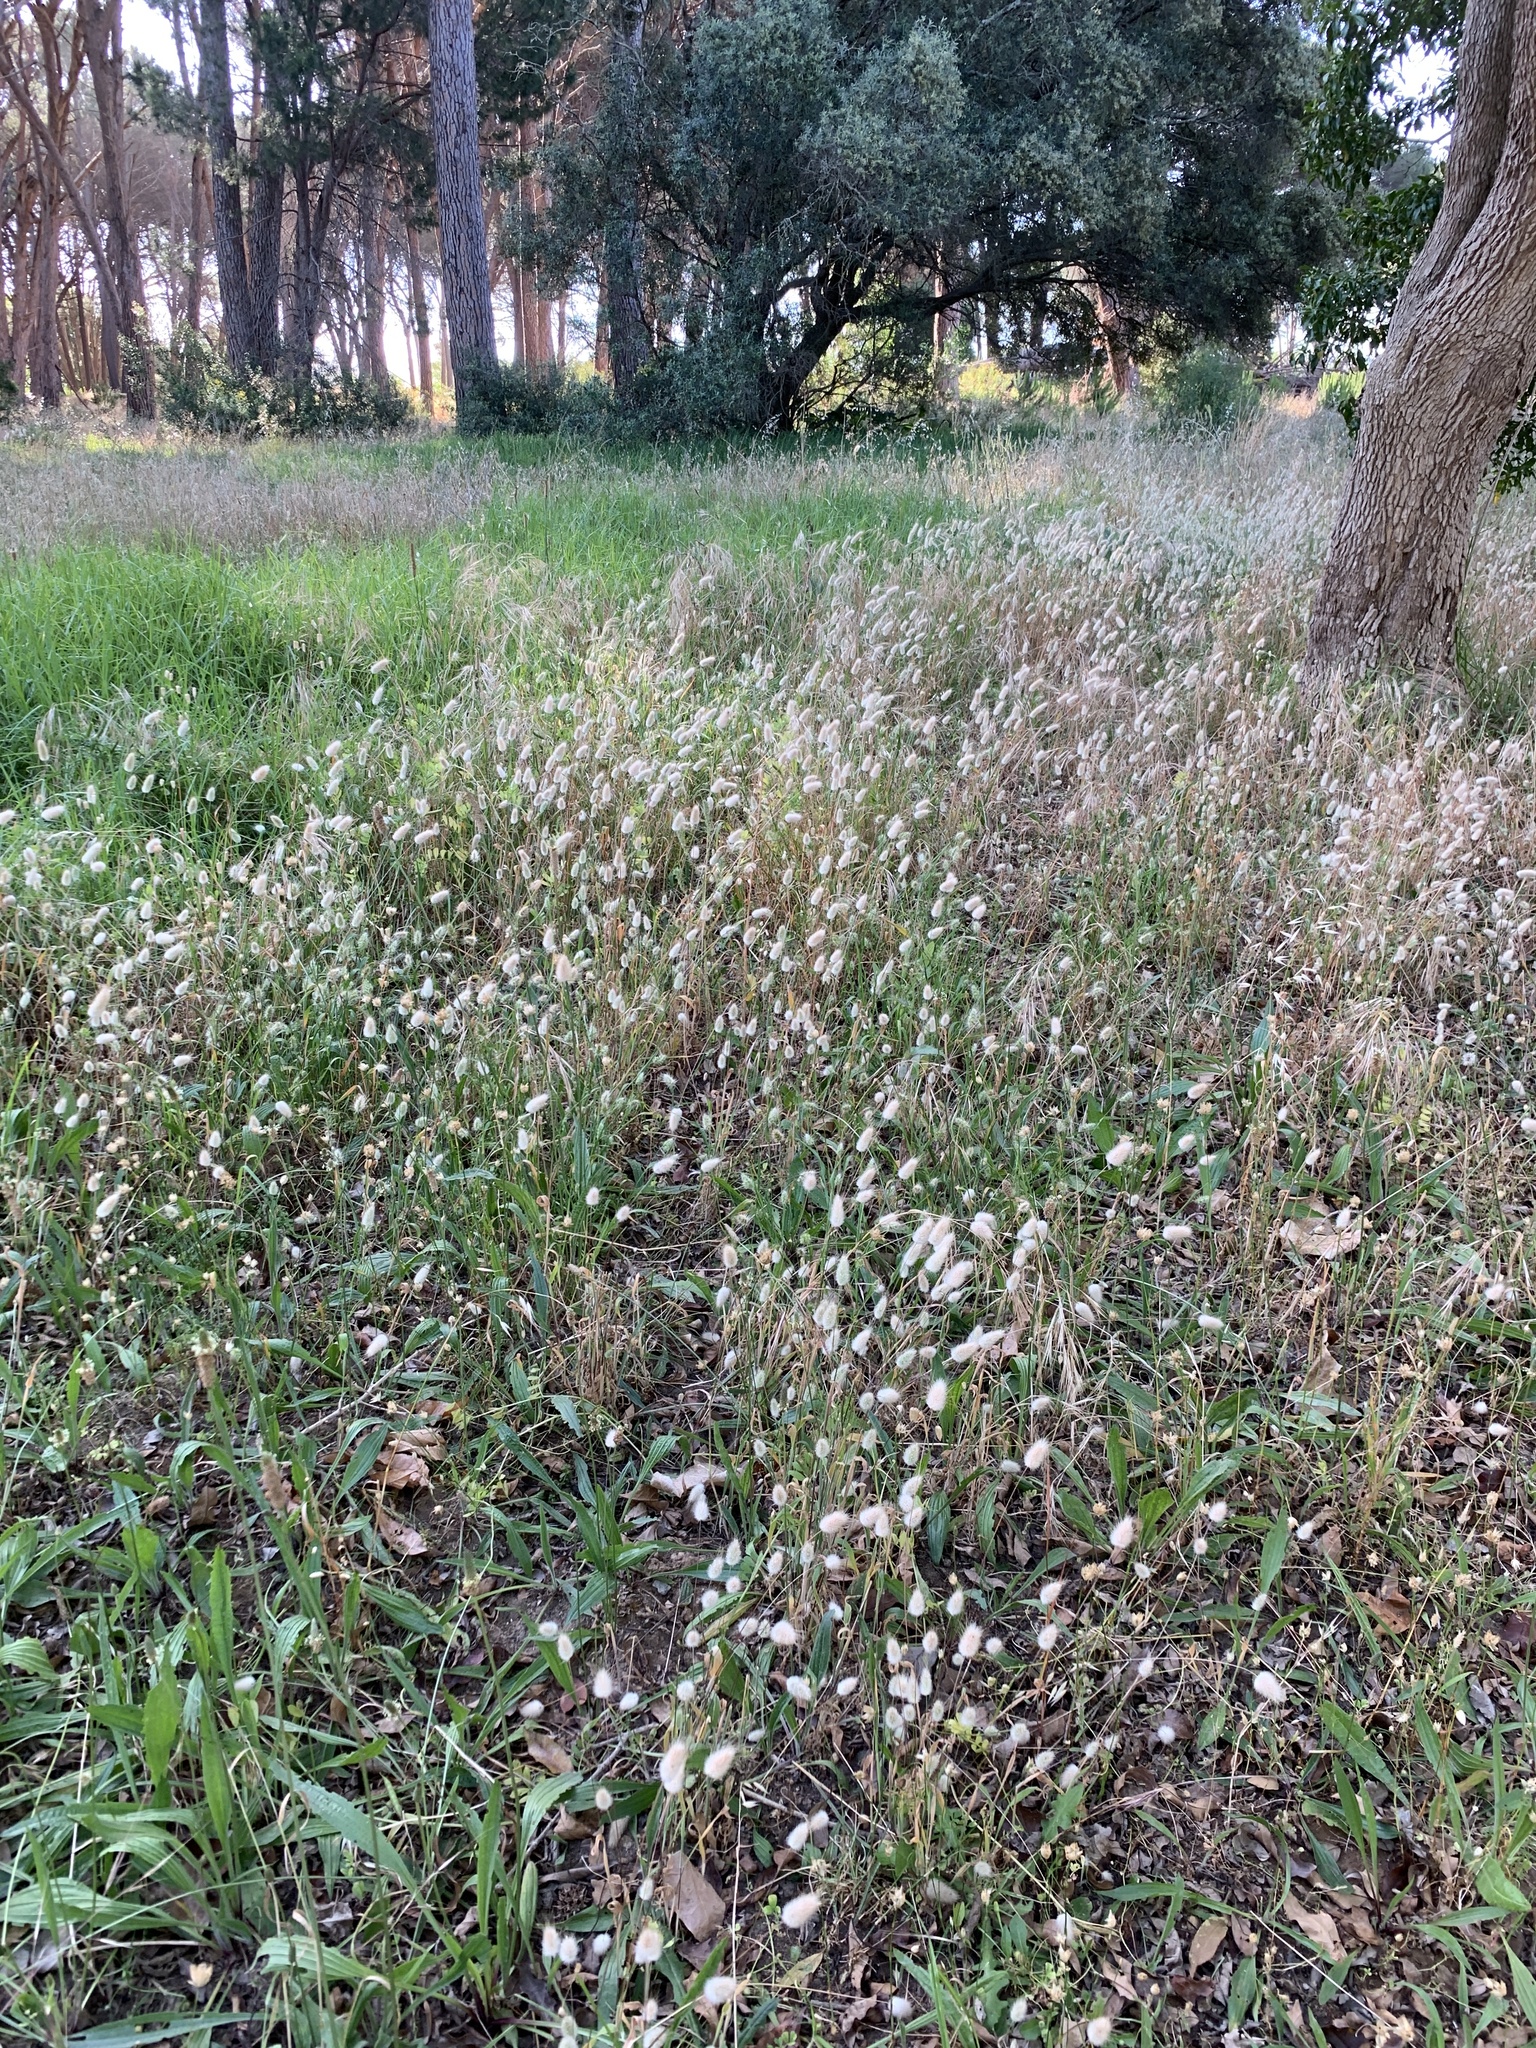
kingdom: Plantae
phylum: Tracheophyta
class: Liliopsida
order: Poales
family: Poaceae
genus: Lagurus
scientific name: Lagurus ovatus
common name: Hare's-tail
